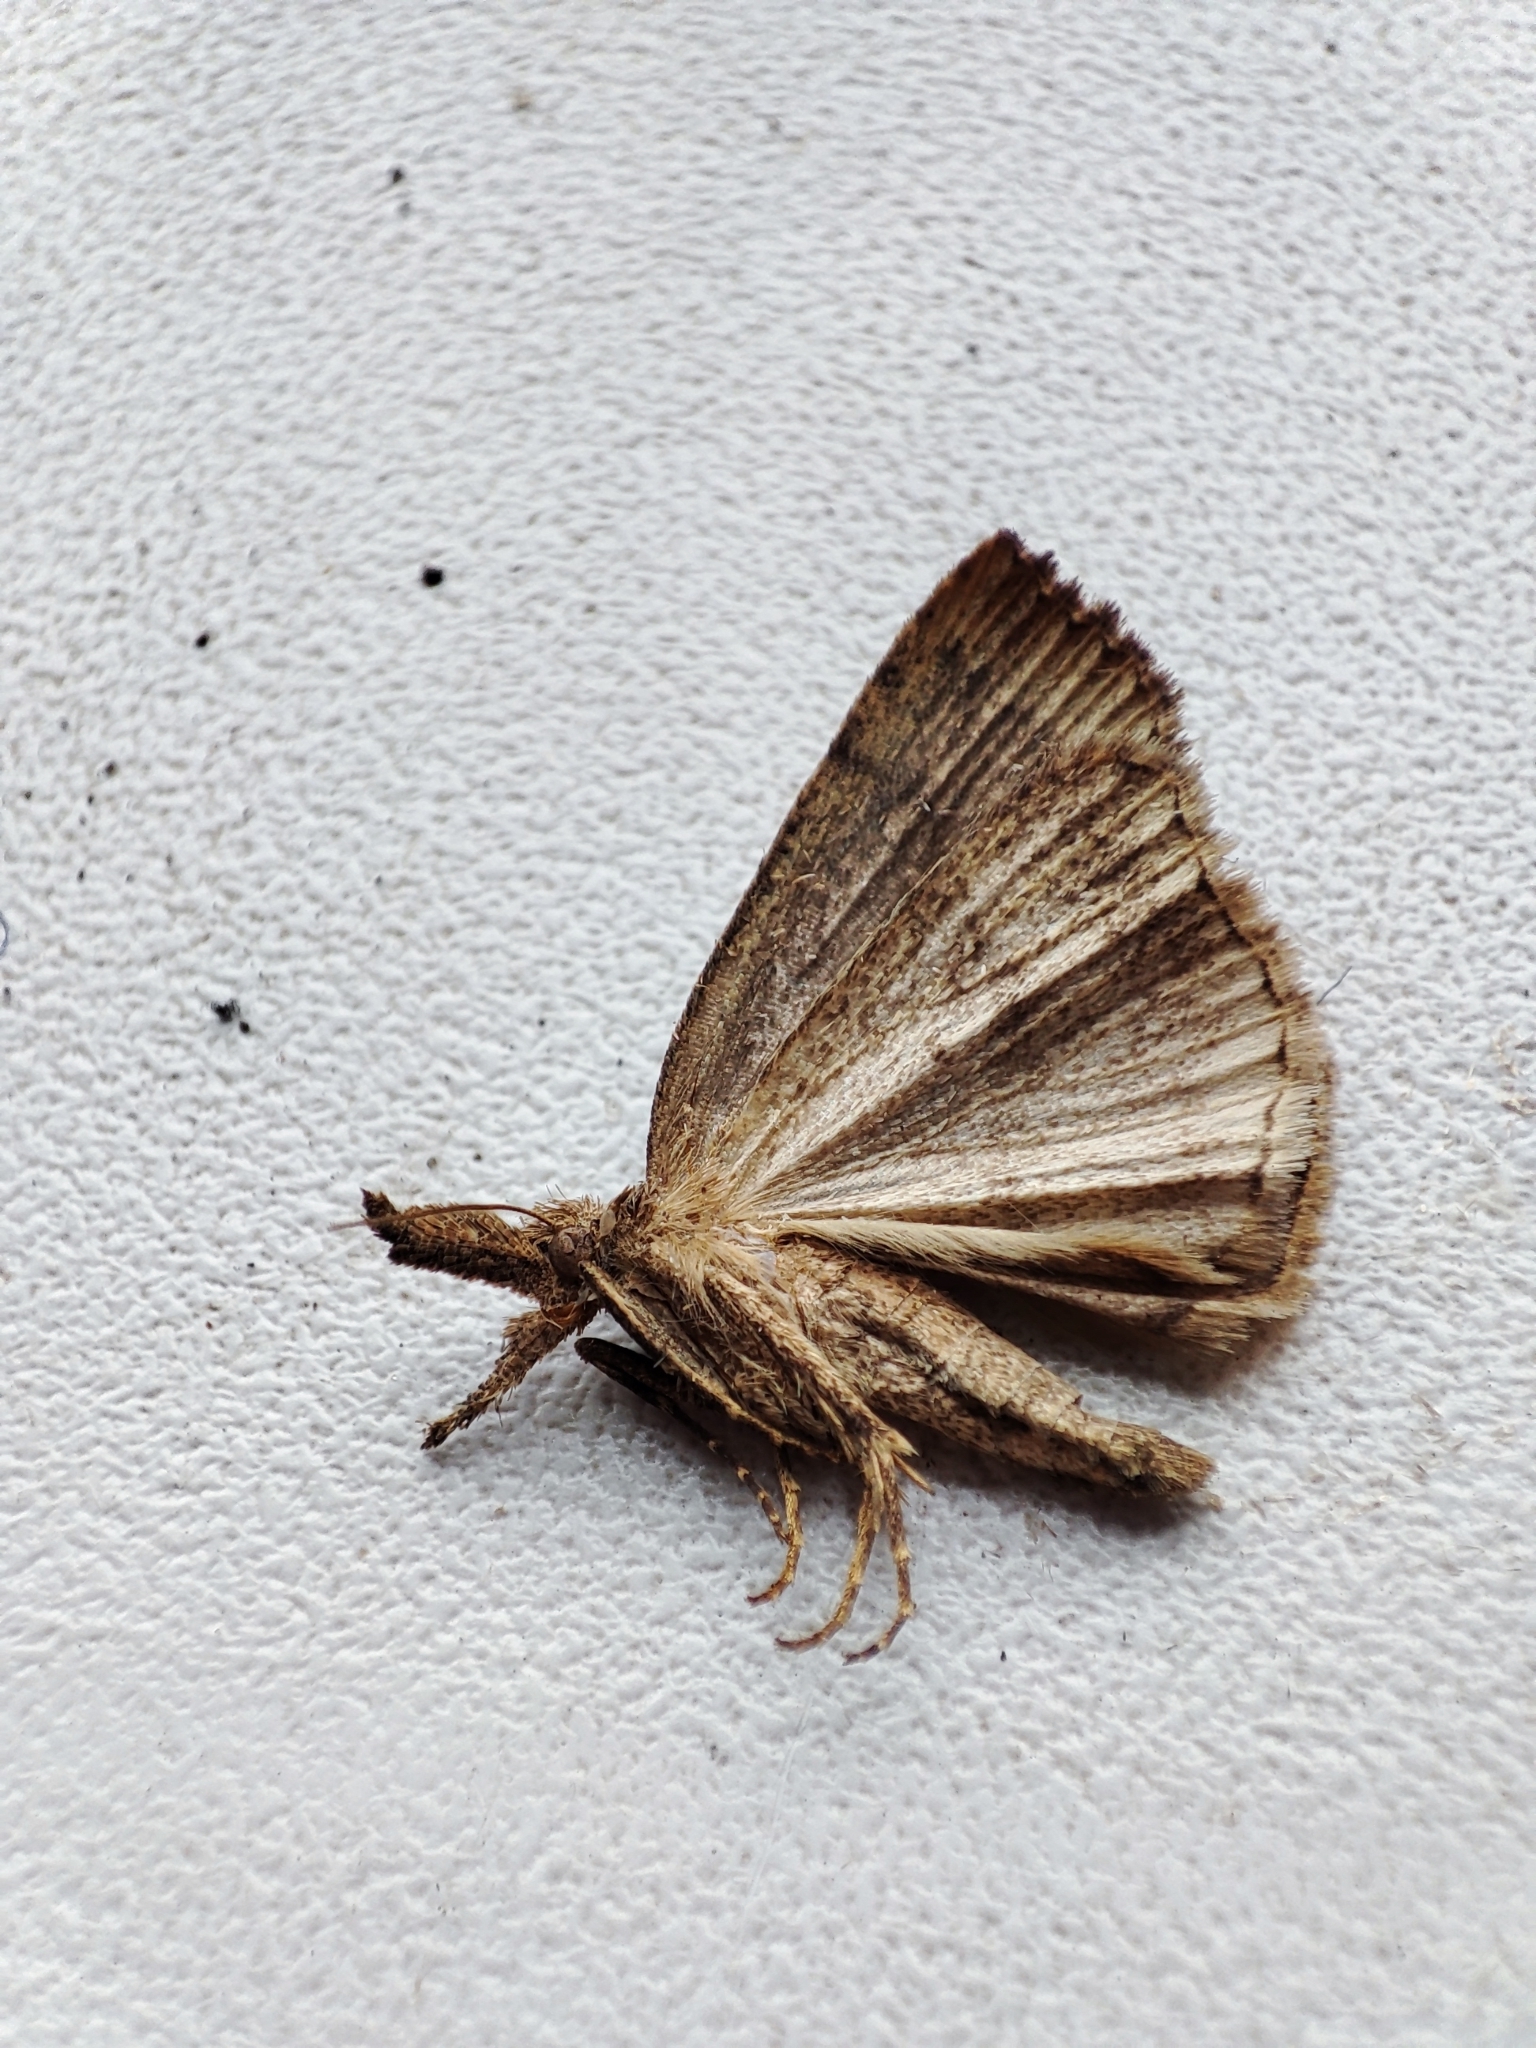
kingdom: Animalia
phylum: Arthropoda
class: Insecta
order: Lepidoptera
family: Erebidae
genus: Hypena
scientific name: Hypena rostralis
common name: Buttoned snout
